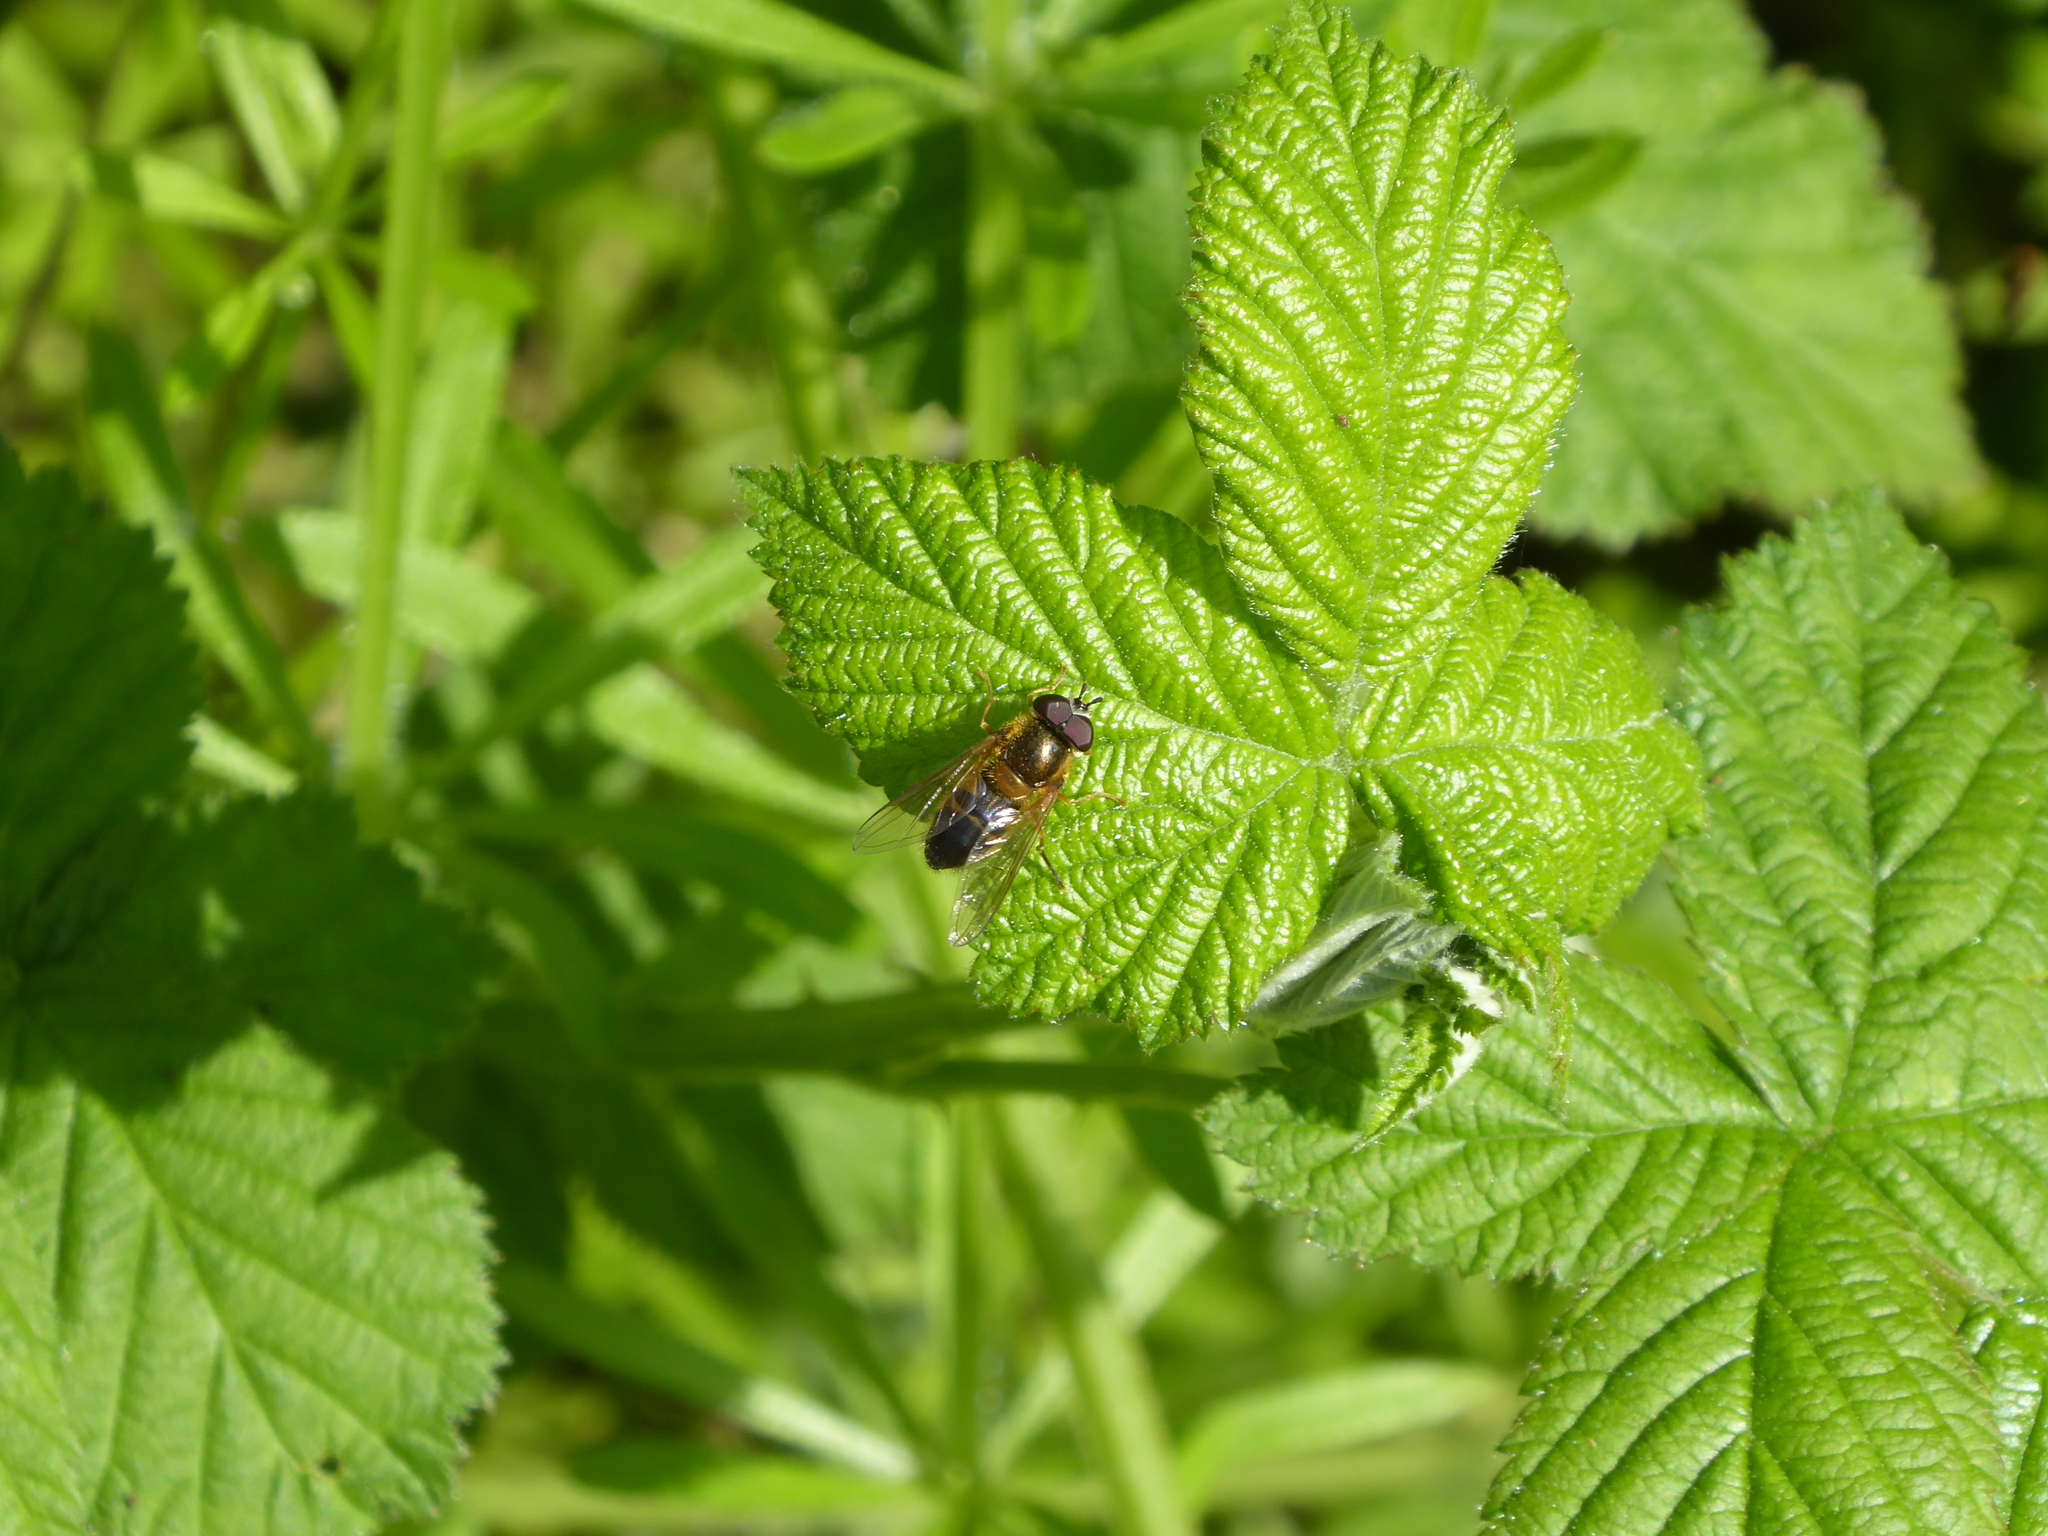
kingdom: Animalia
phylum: Arthropoda
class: Insecta
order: Diptera
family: Syrphidae
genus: Epistrophe
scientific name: Epistrophe eligans
